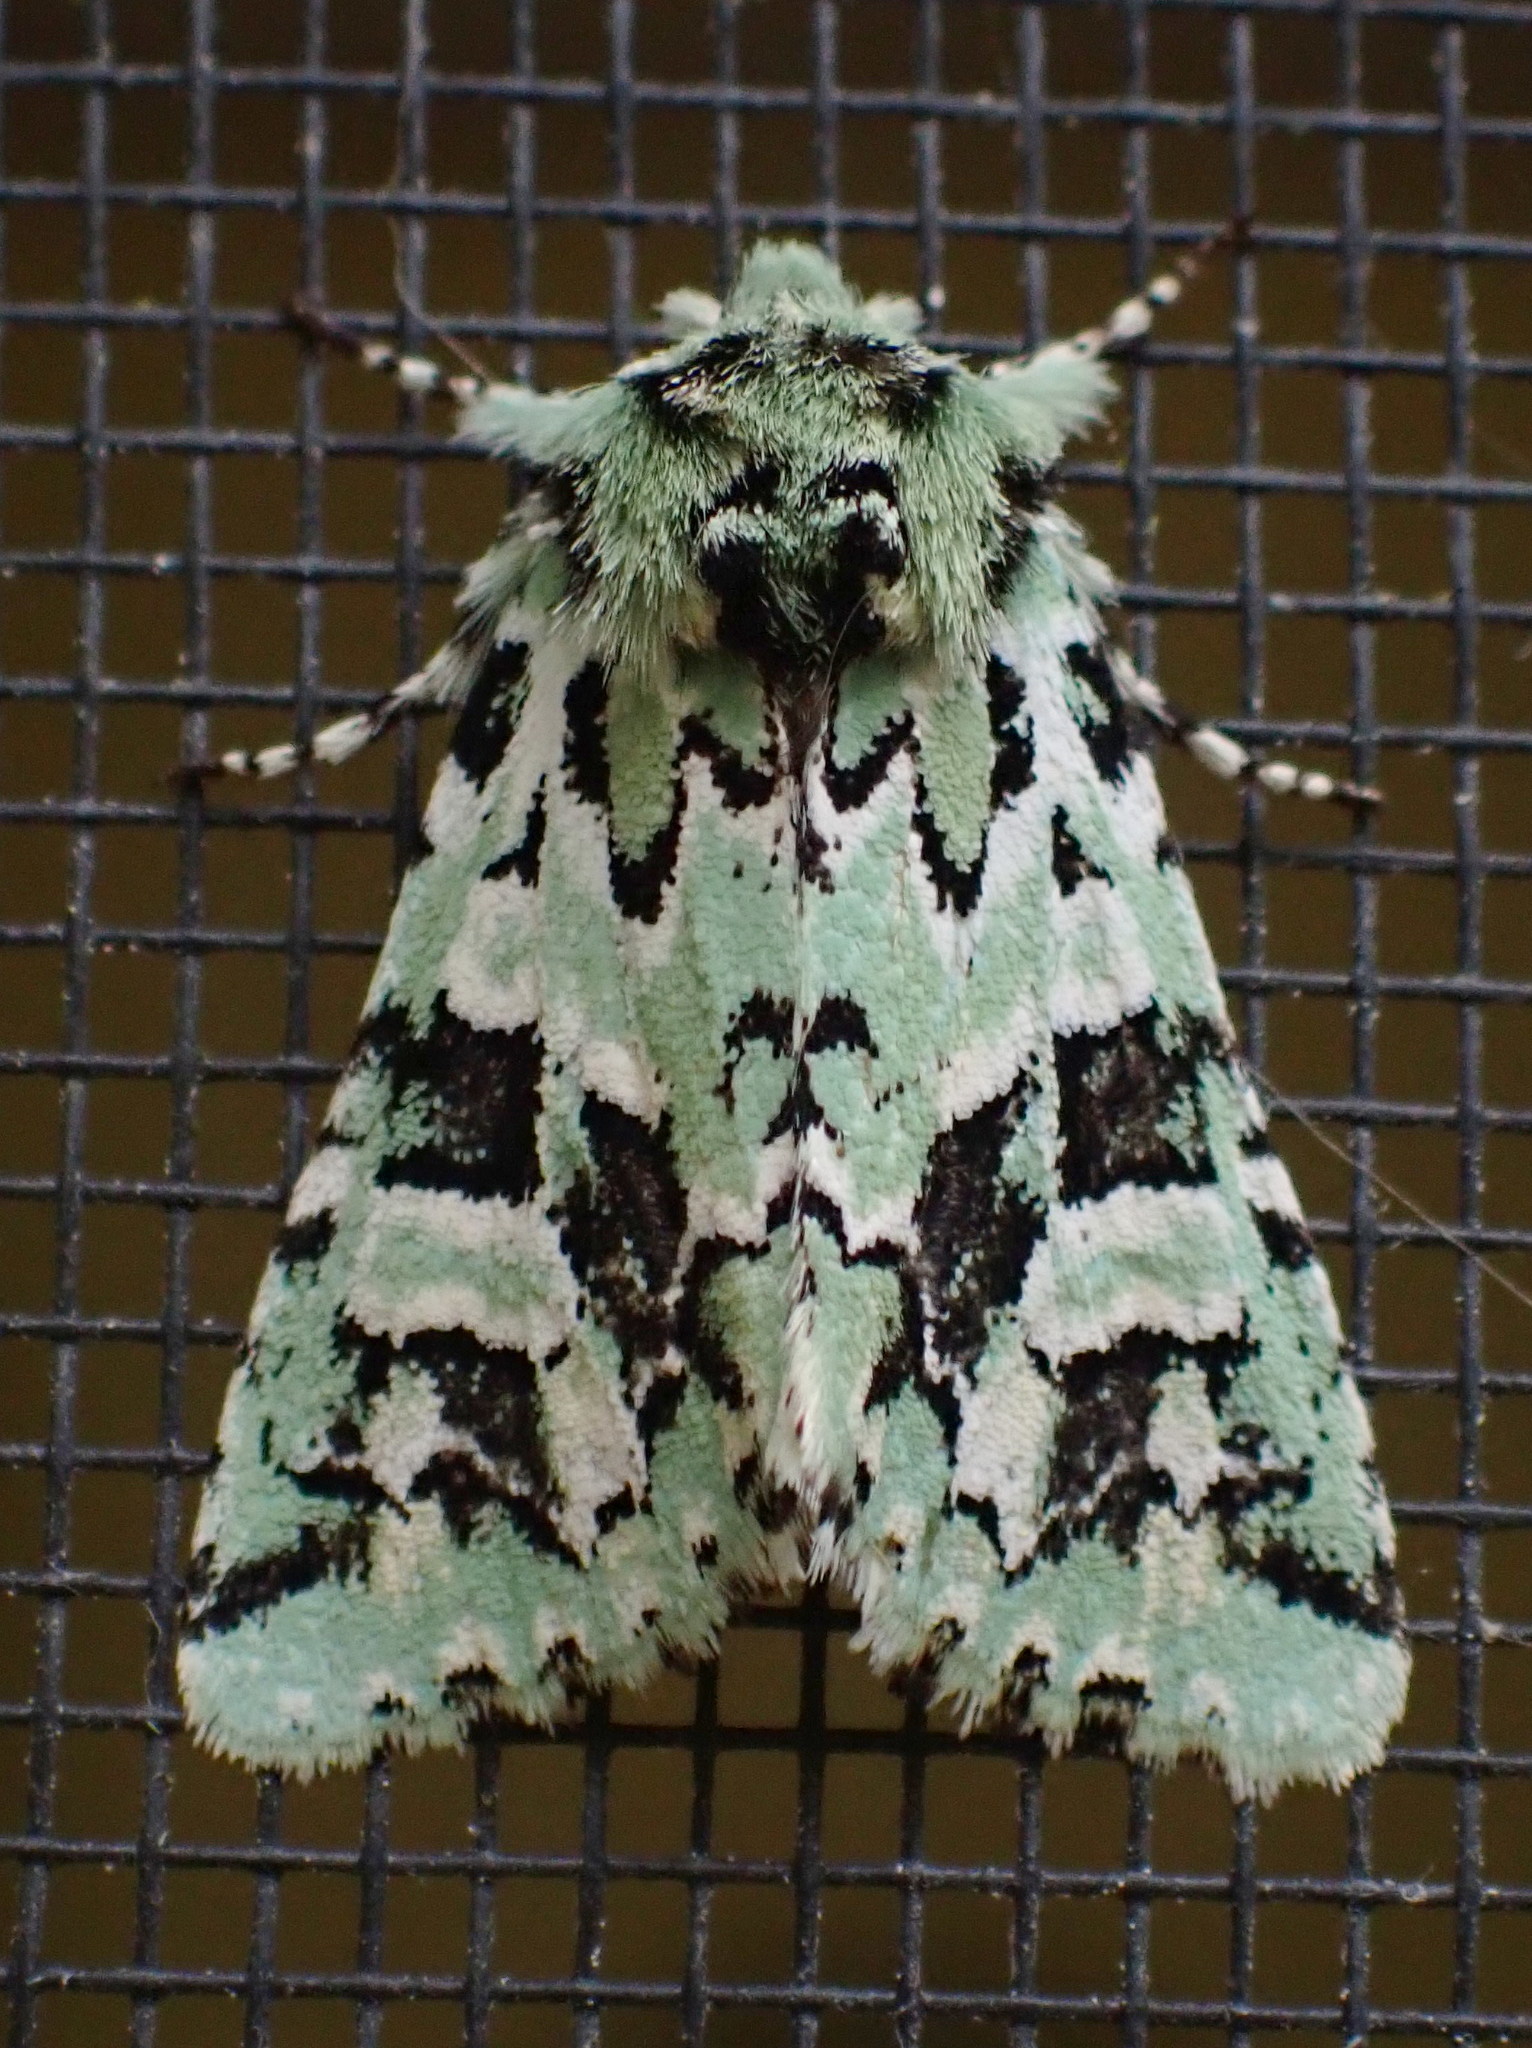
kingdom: Animalia
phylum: Arthropoda
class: Insecta
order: Lepidoptera
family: Noctuidae
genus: Feralia
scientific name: Feralia comstocki
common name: Comstock's sallow
